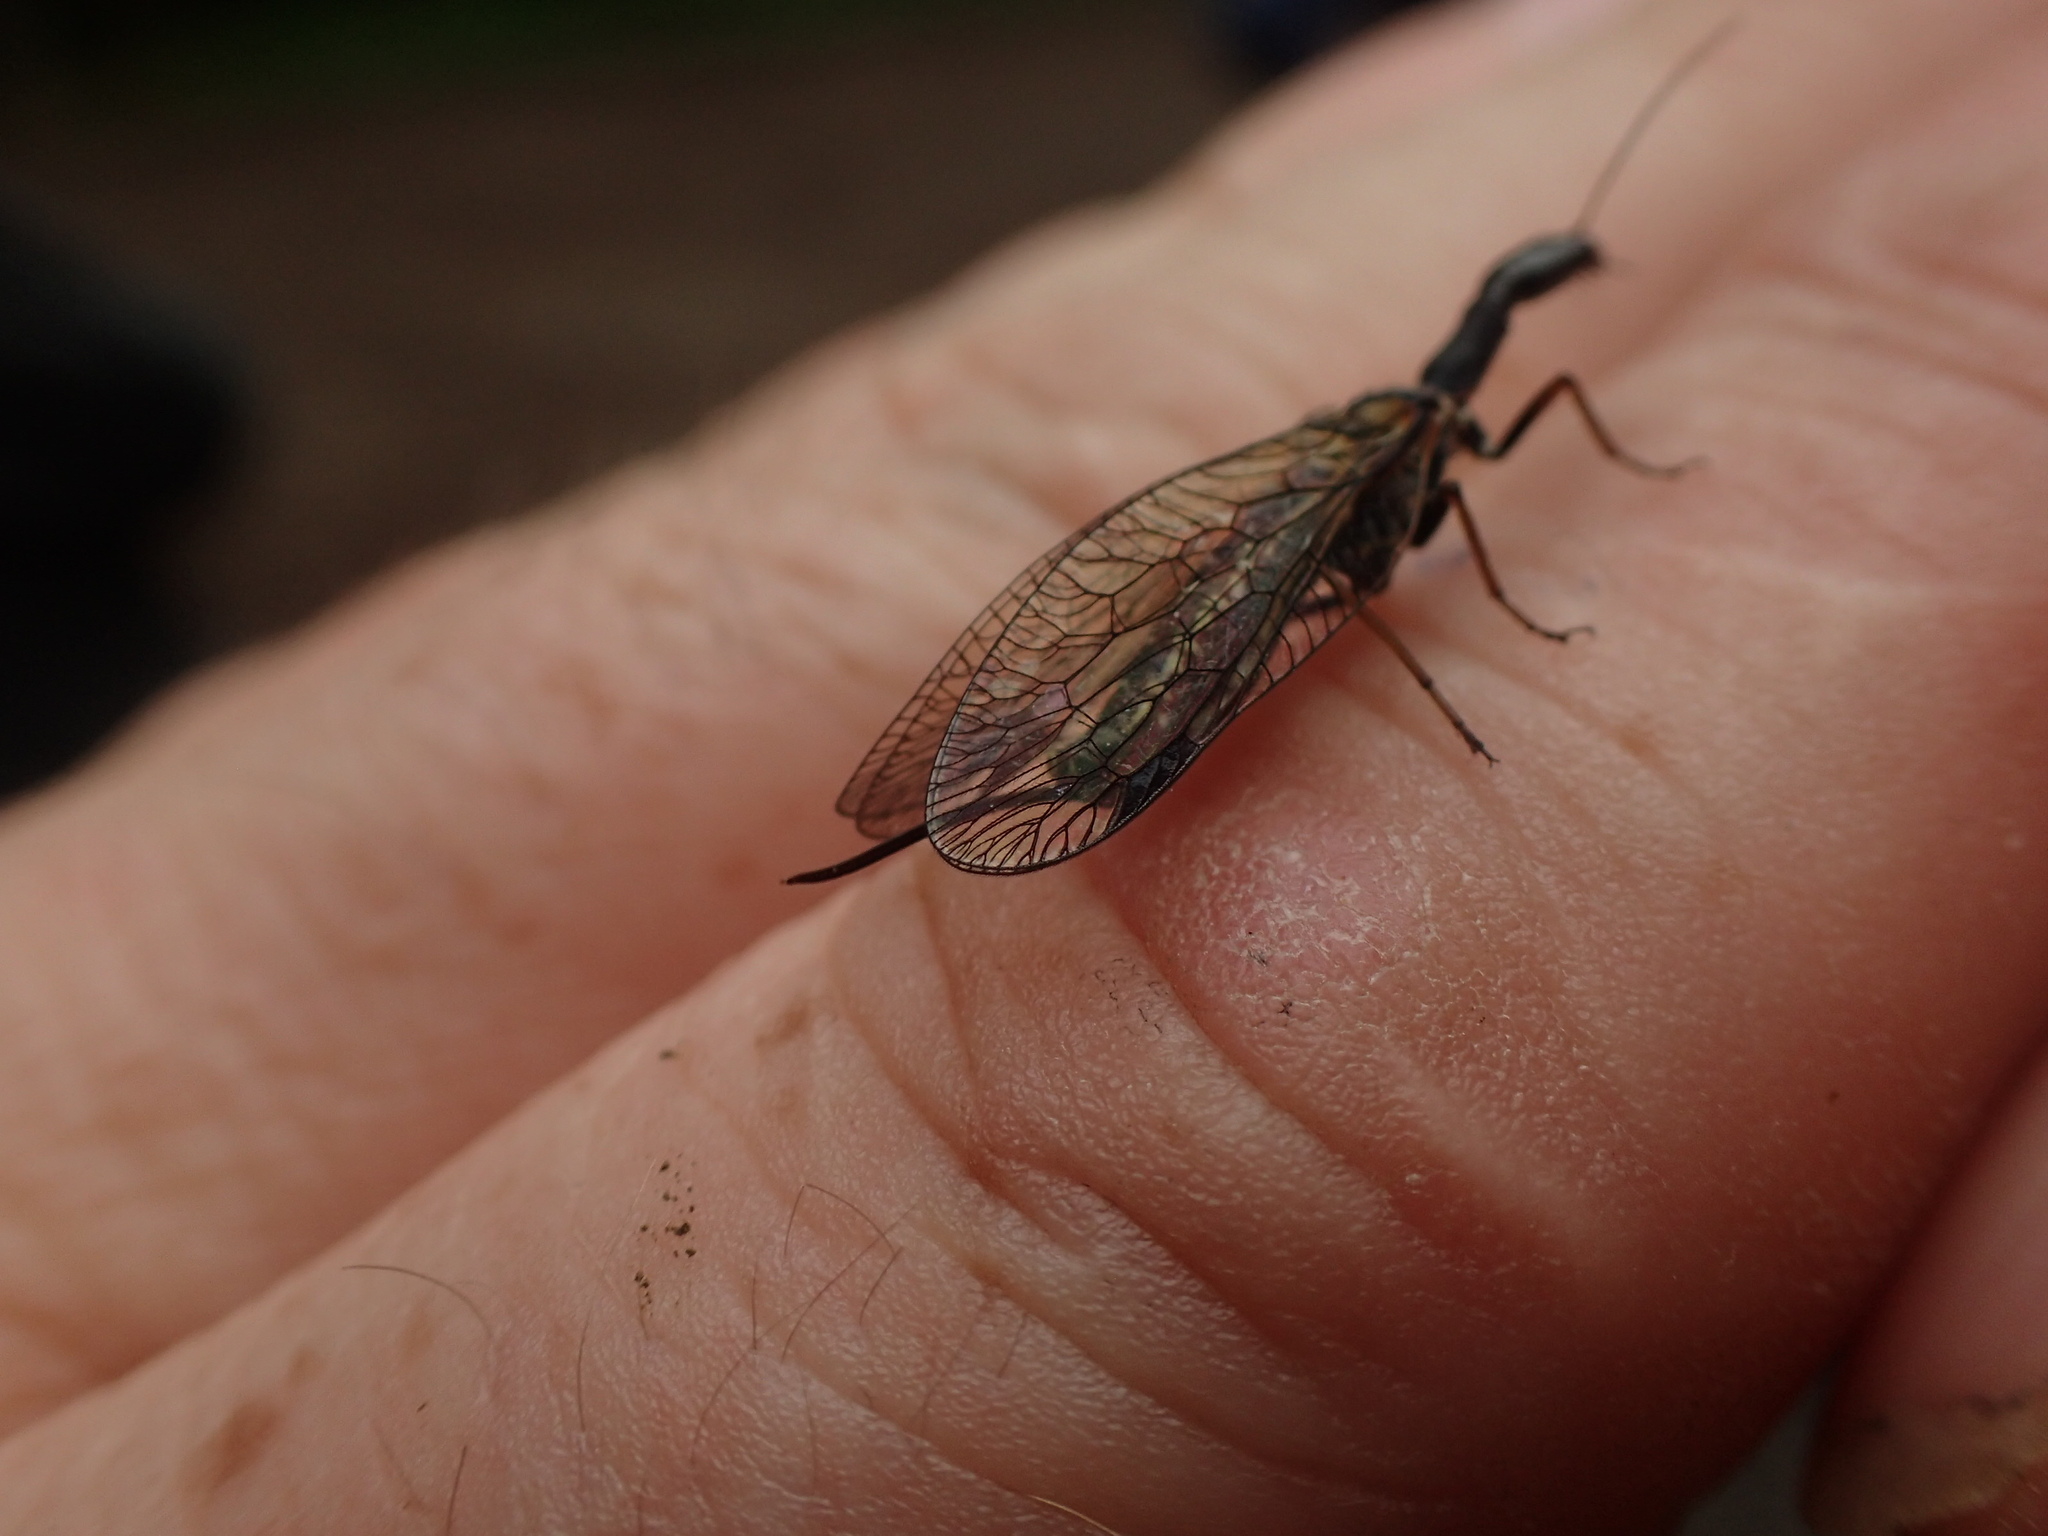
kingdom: Animalia
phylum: Arthropoda
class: Insecta
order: Raphidioptera
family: Raphidiidae
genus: Phaeostigma
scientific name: Phaeostigma notatum
